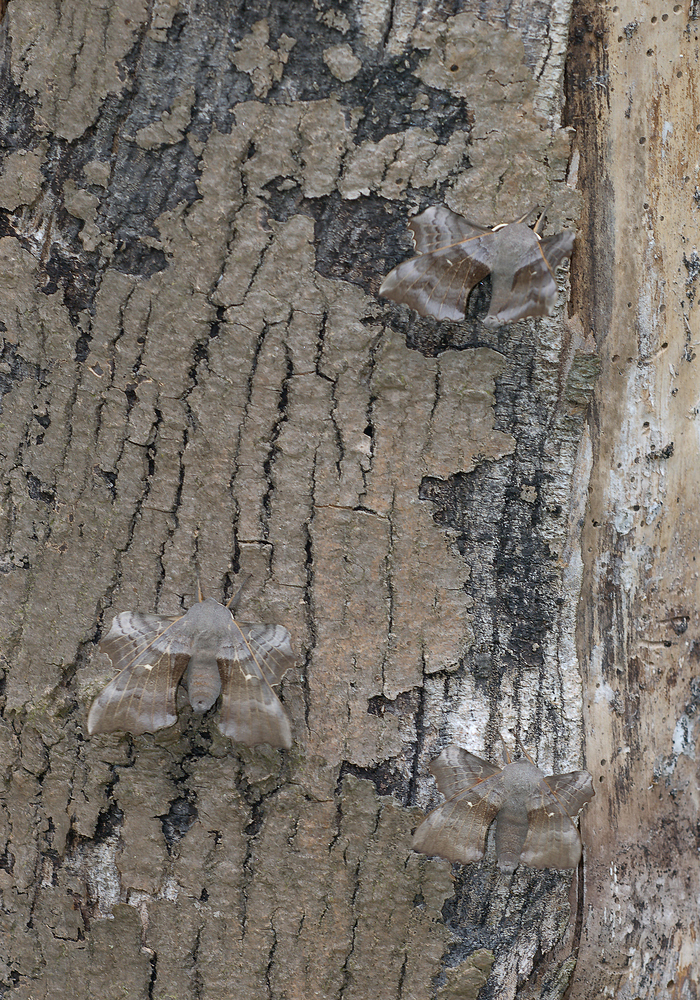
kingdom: Animalia
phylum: Arthropoda
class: Insecta
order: Lepidoptera
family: Sphingidae
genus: Laothoe
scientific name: Laothoe populi
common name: Poplar hawk-moth
